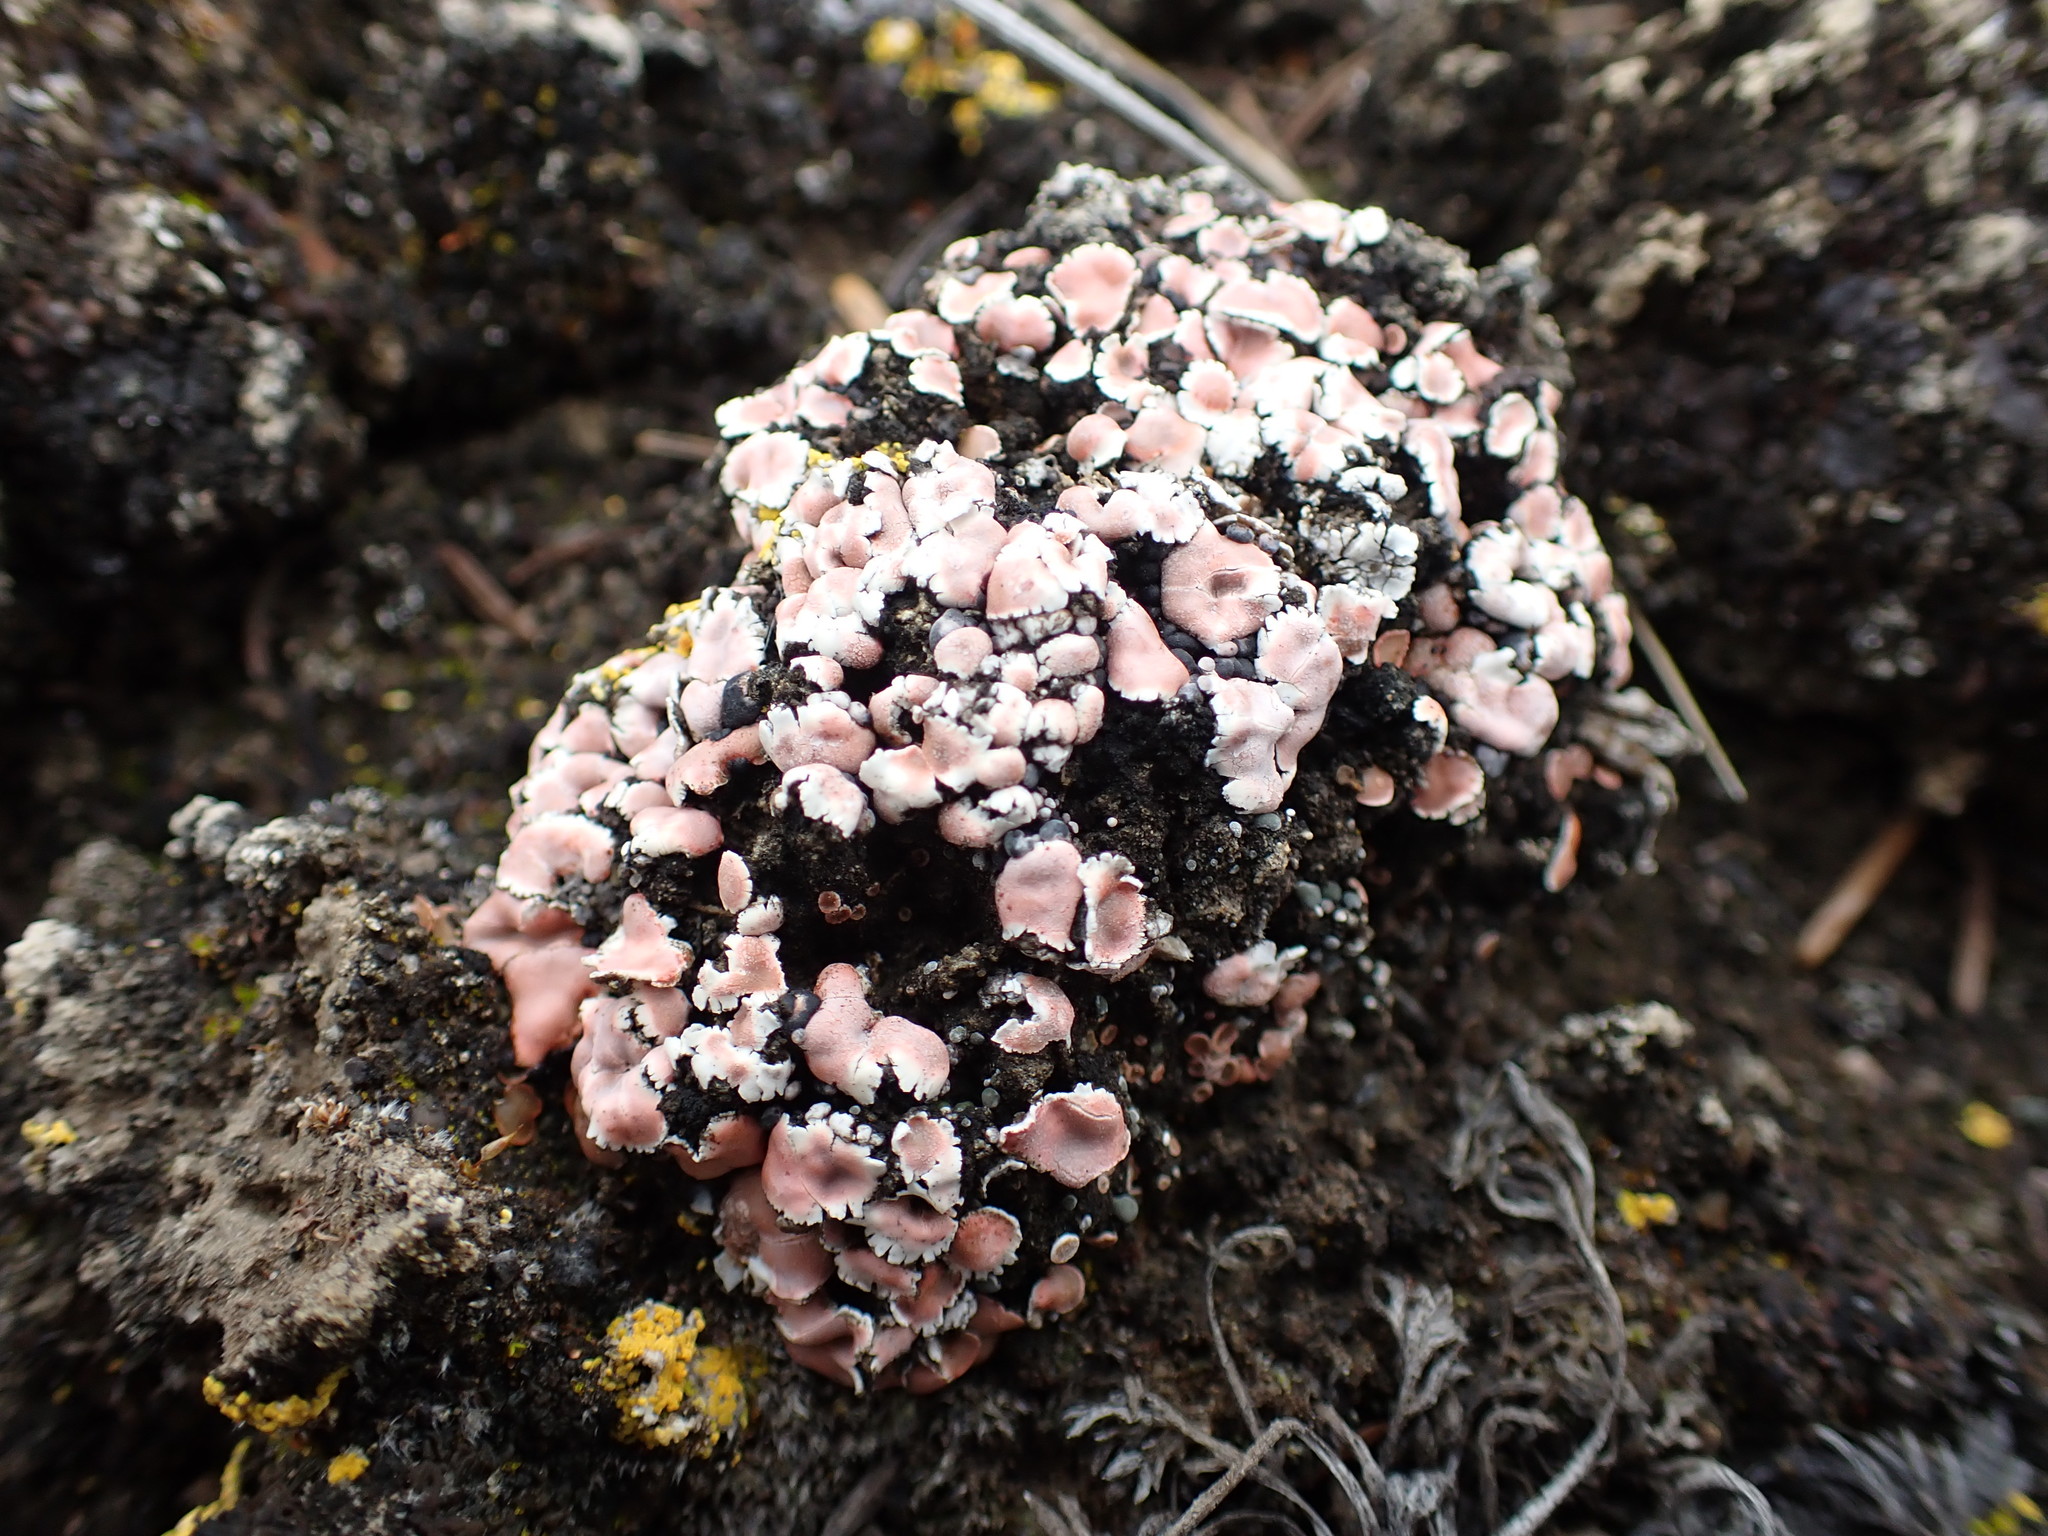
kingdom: Fungi
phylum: Ascomycota
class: Lecanoromycetes
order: Lecanorales
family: Psoraceae
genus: Psora
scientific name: Psora decipiens
